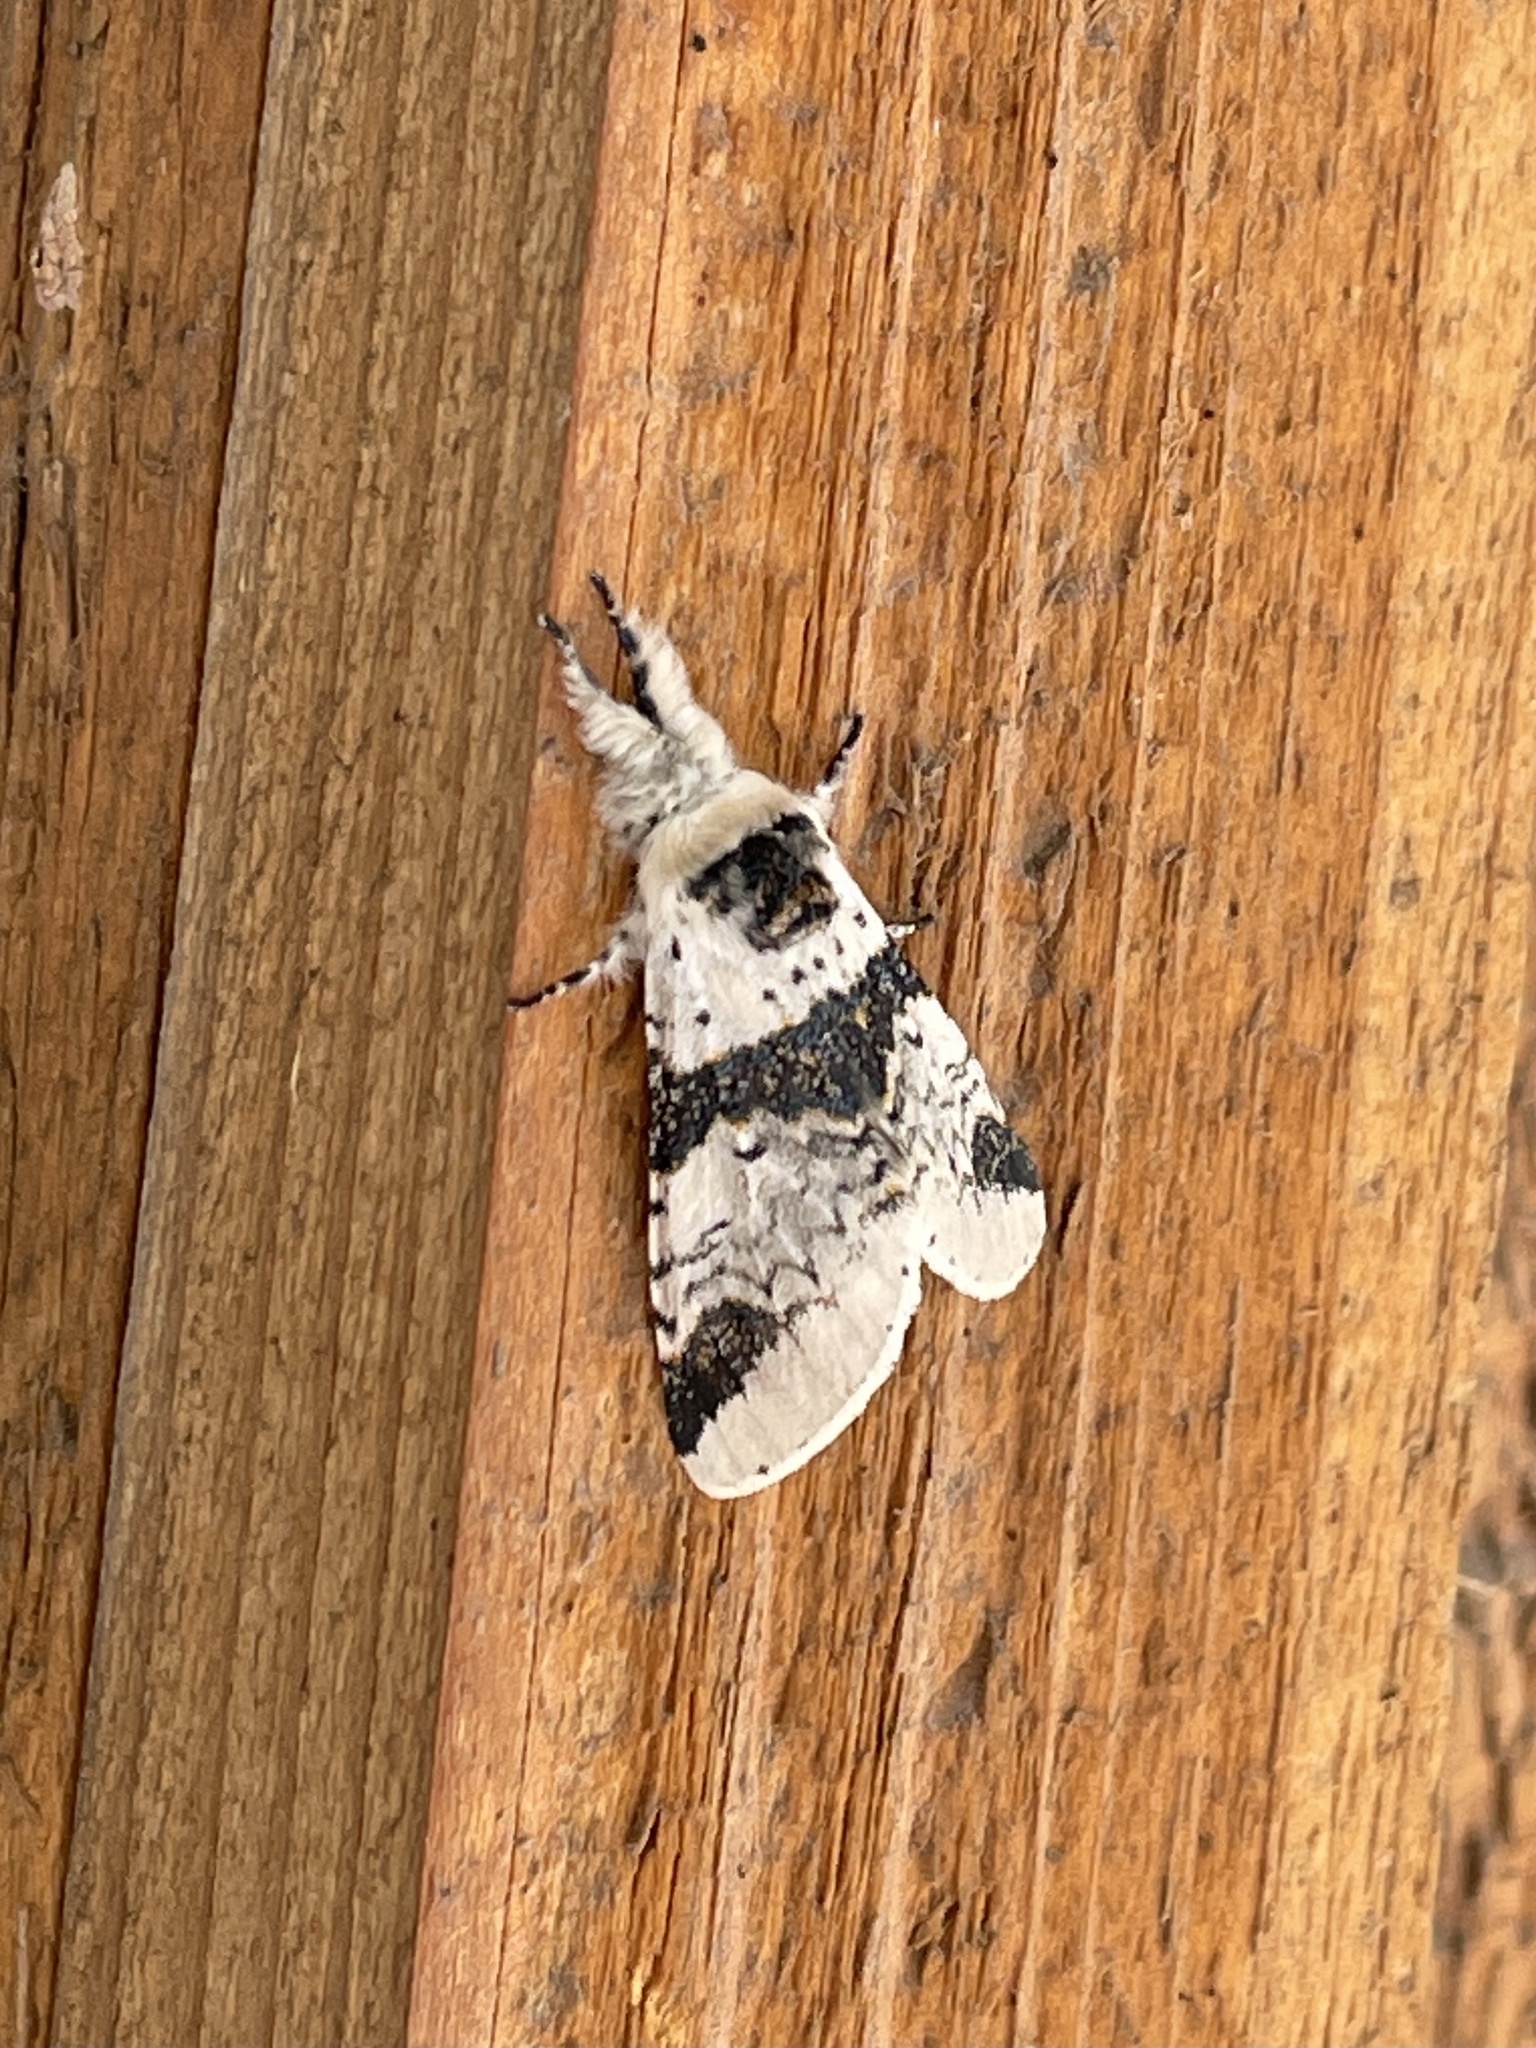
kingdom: Animalia
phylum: Arthropoda
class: Insecta
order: Lepidoptera
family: Notodontidae
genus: Furcula
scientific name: Furcula scolopendrina
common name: Zigzag furcula moth
